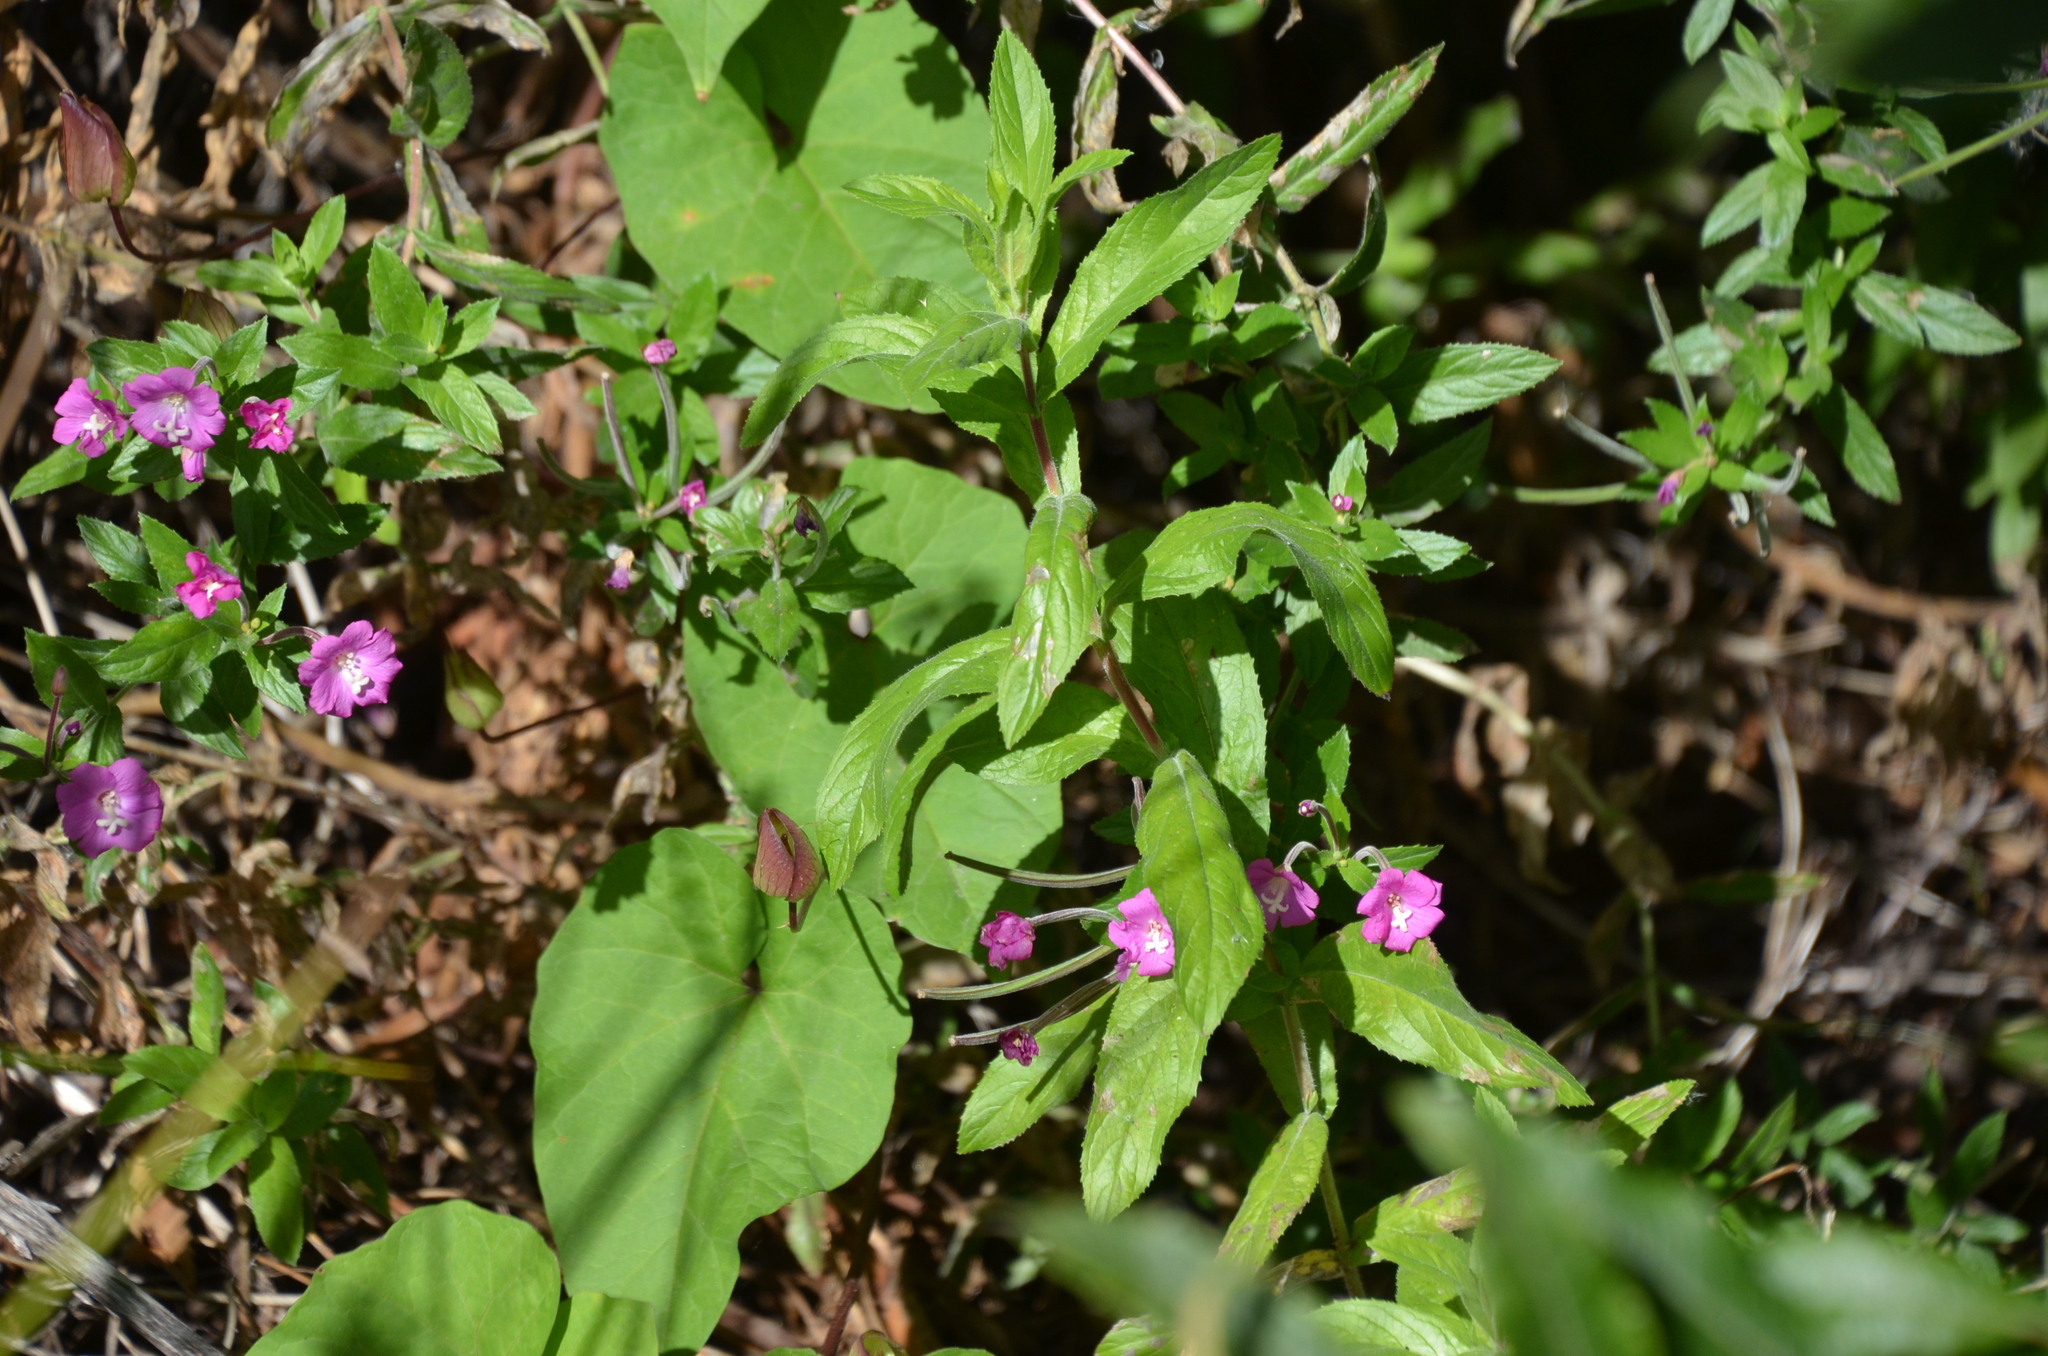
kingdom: Plantae
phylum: Tracheophyta
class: Magnoliopsida
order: Myrtales
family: Onagraceae
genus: Epilobium
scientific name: Epilobium hirsutum
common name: Great willowherb
